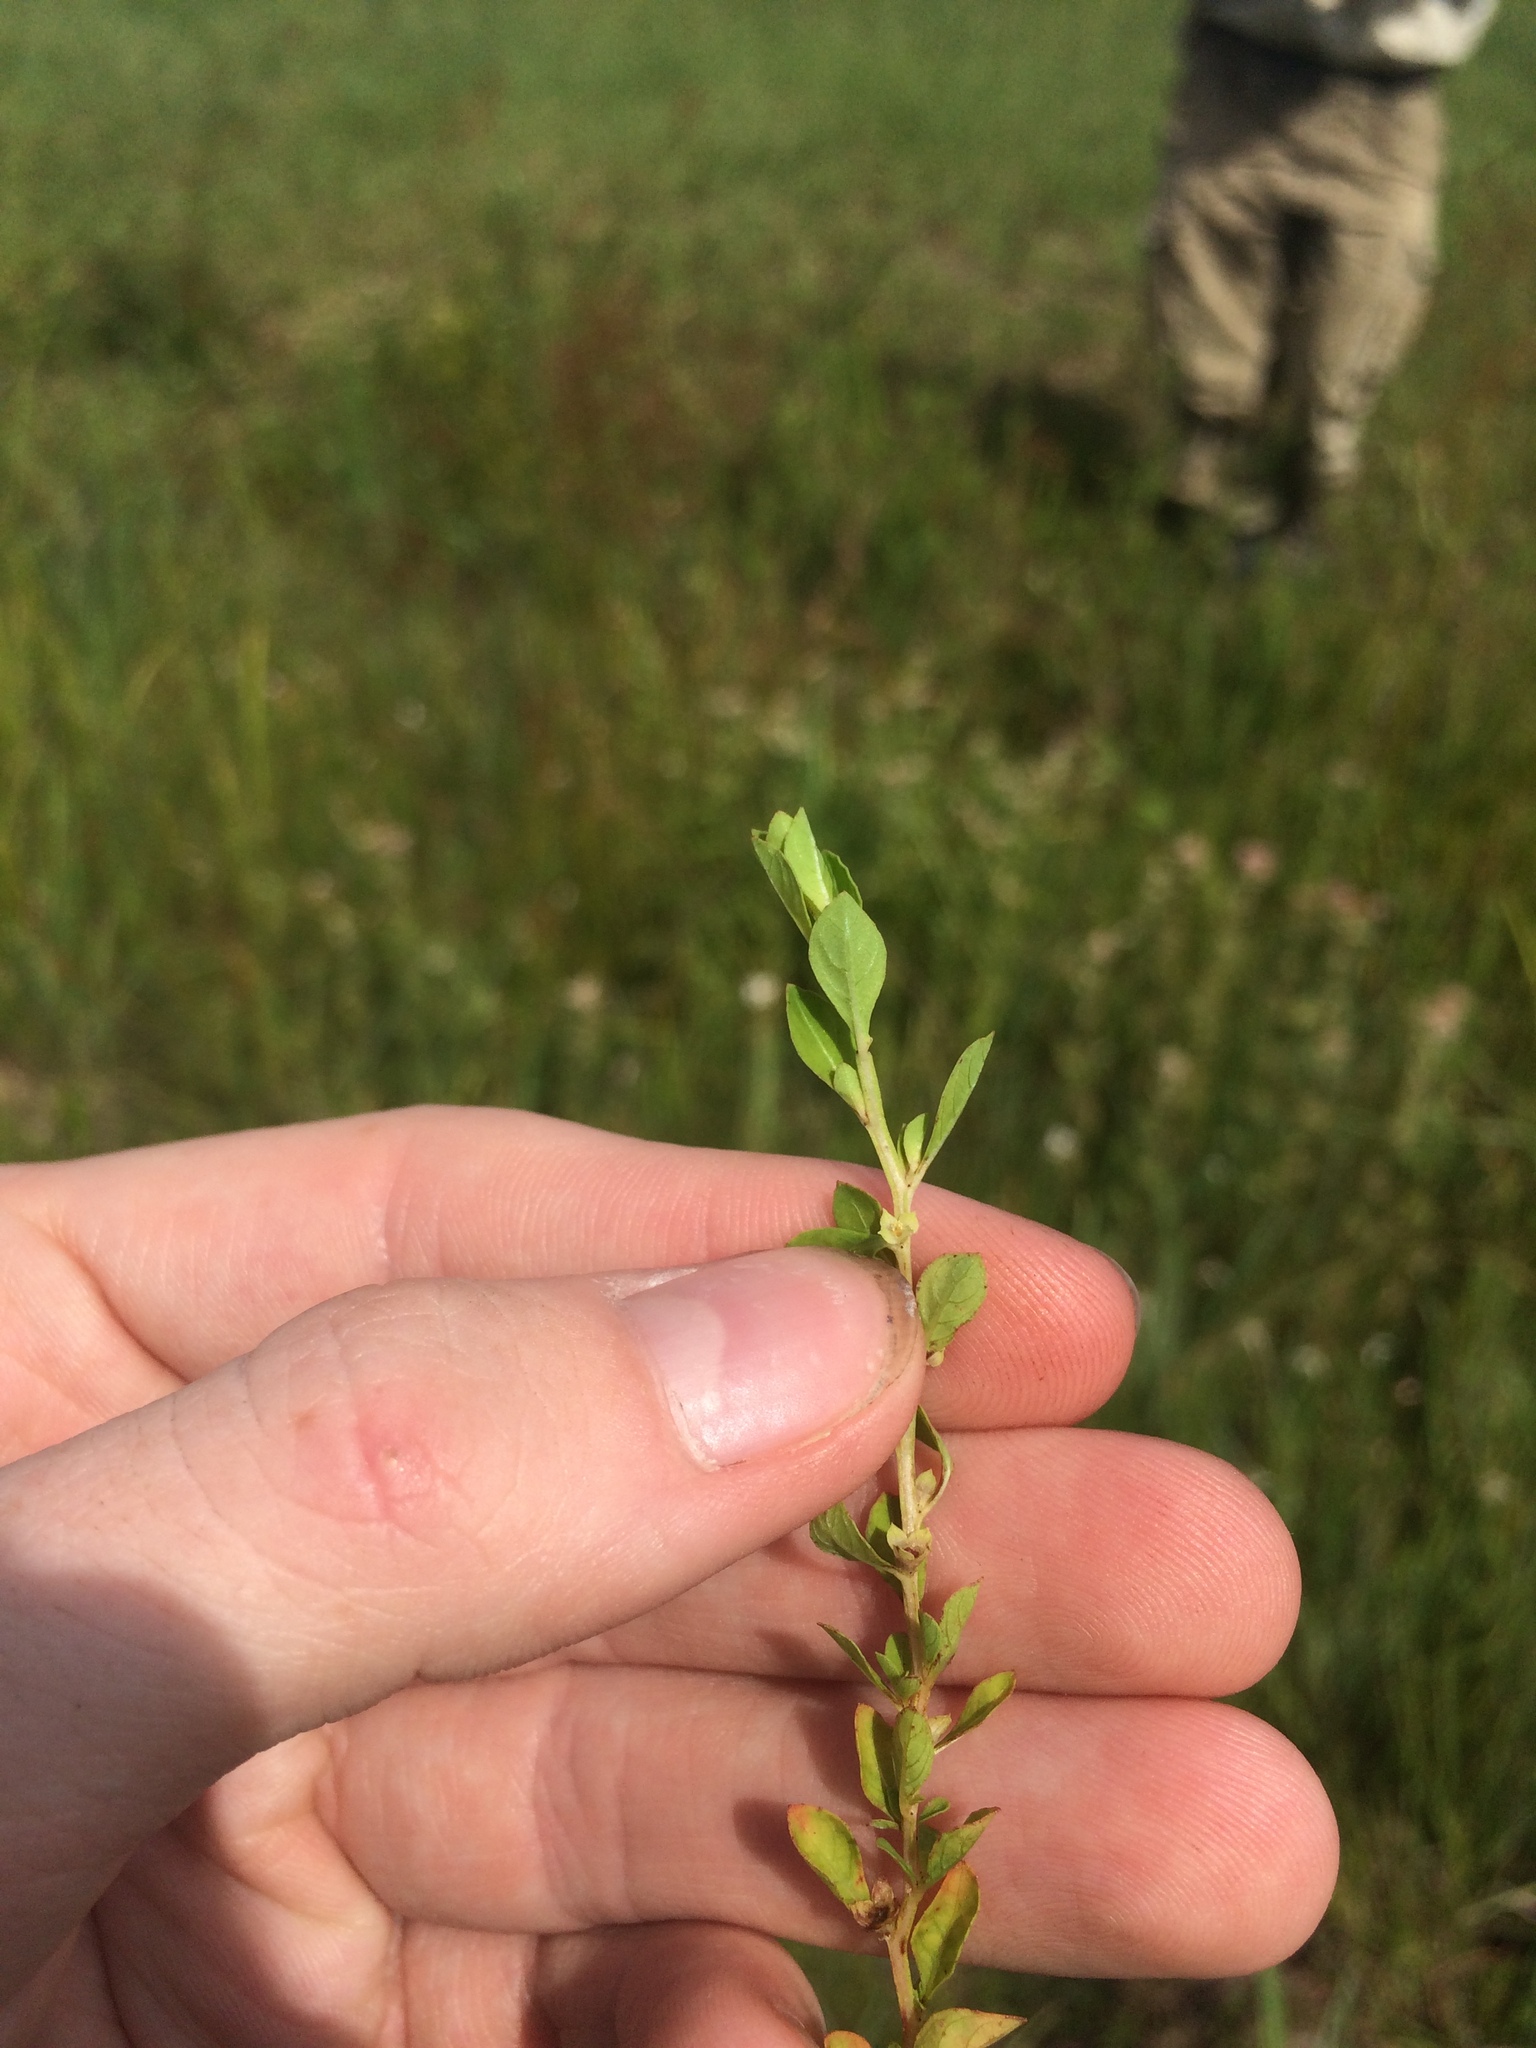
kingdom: Plantae
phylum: Tracheophyta
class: Magnoliopsida
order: Myrtales
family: Onagraceae
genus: Ludwigia
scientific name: Ludwigia microcarpa
